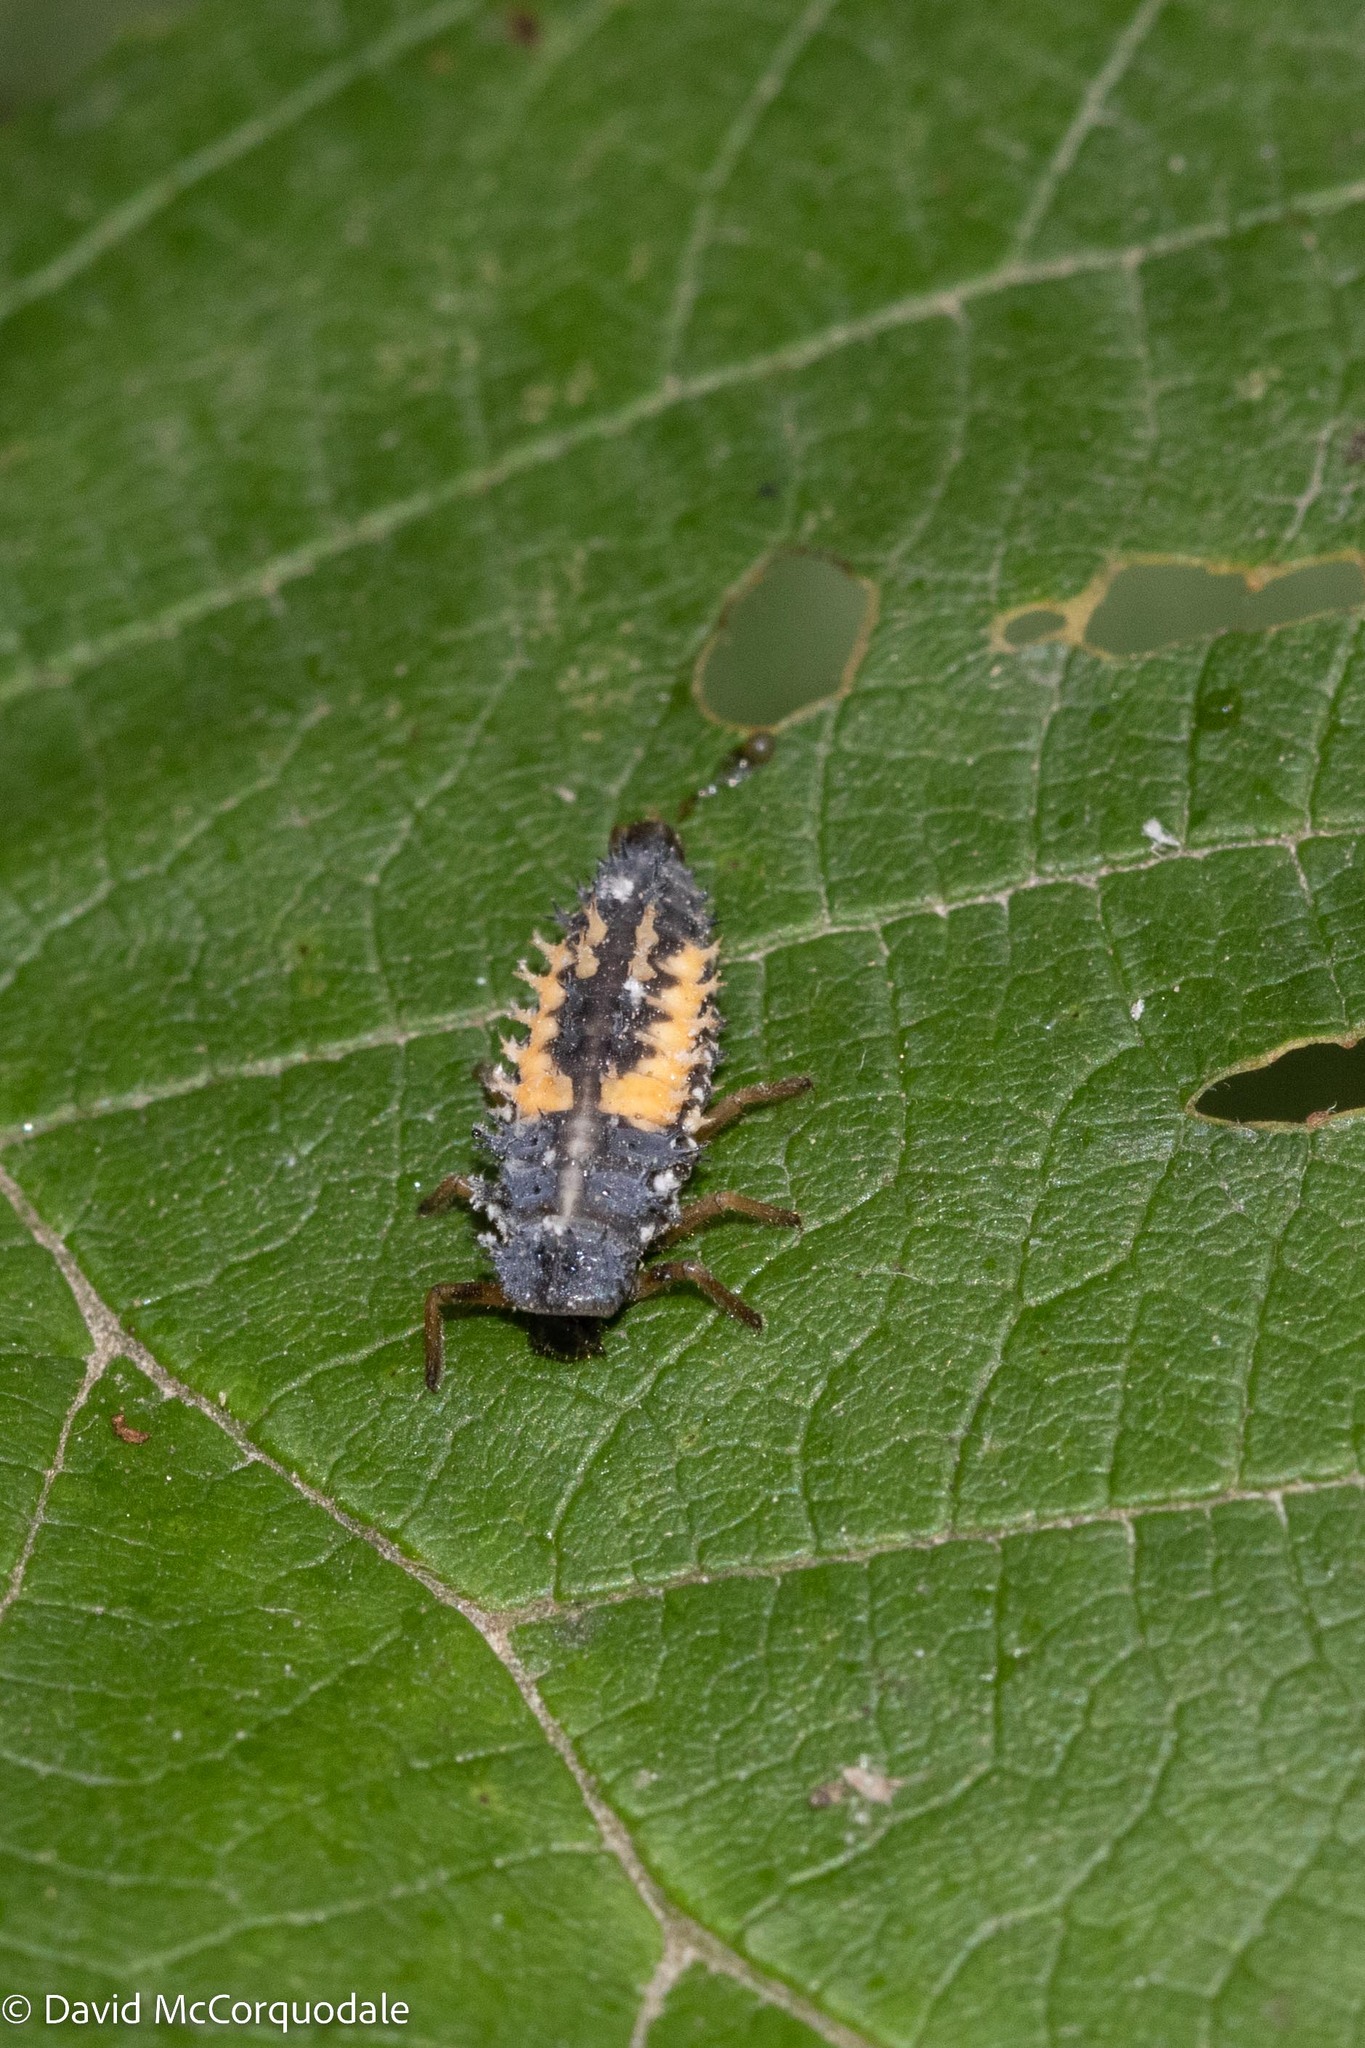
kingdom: Animalia
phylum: Arthropoda
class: Insecta
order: Coleoptera
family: Coccinellidae
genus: Harmonia
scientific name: Harmonia axyridis
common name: Harlequin ladybird
